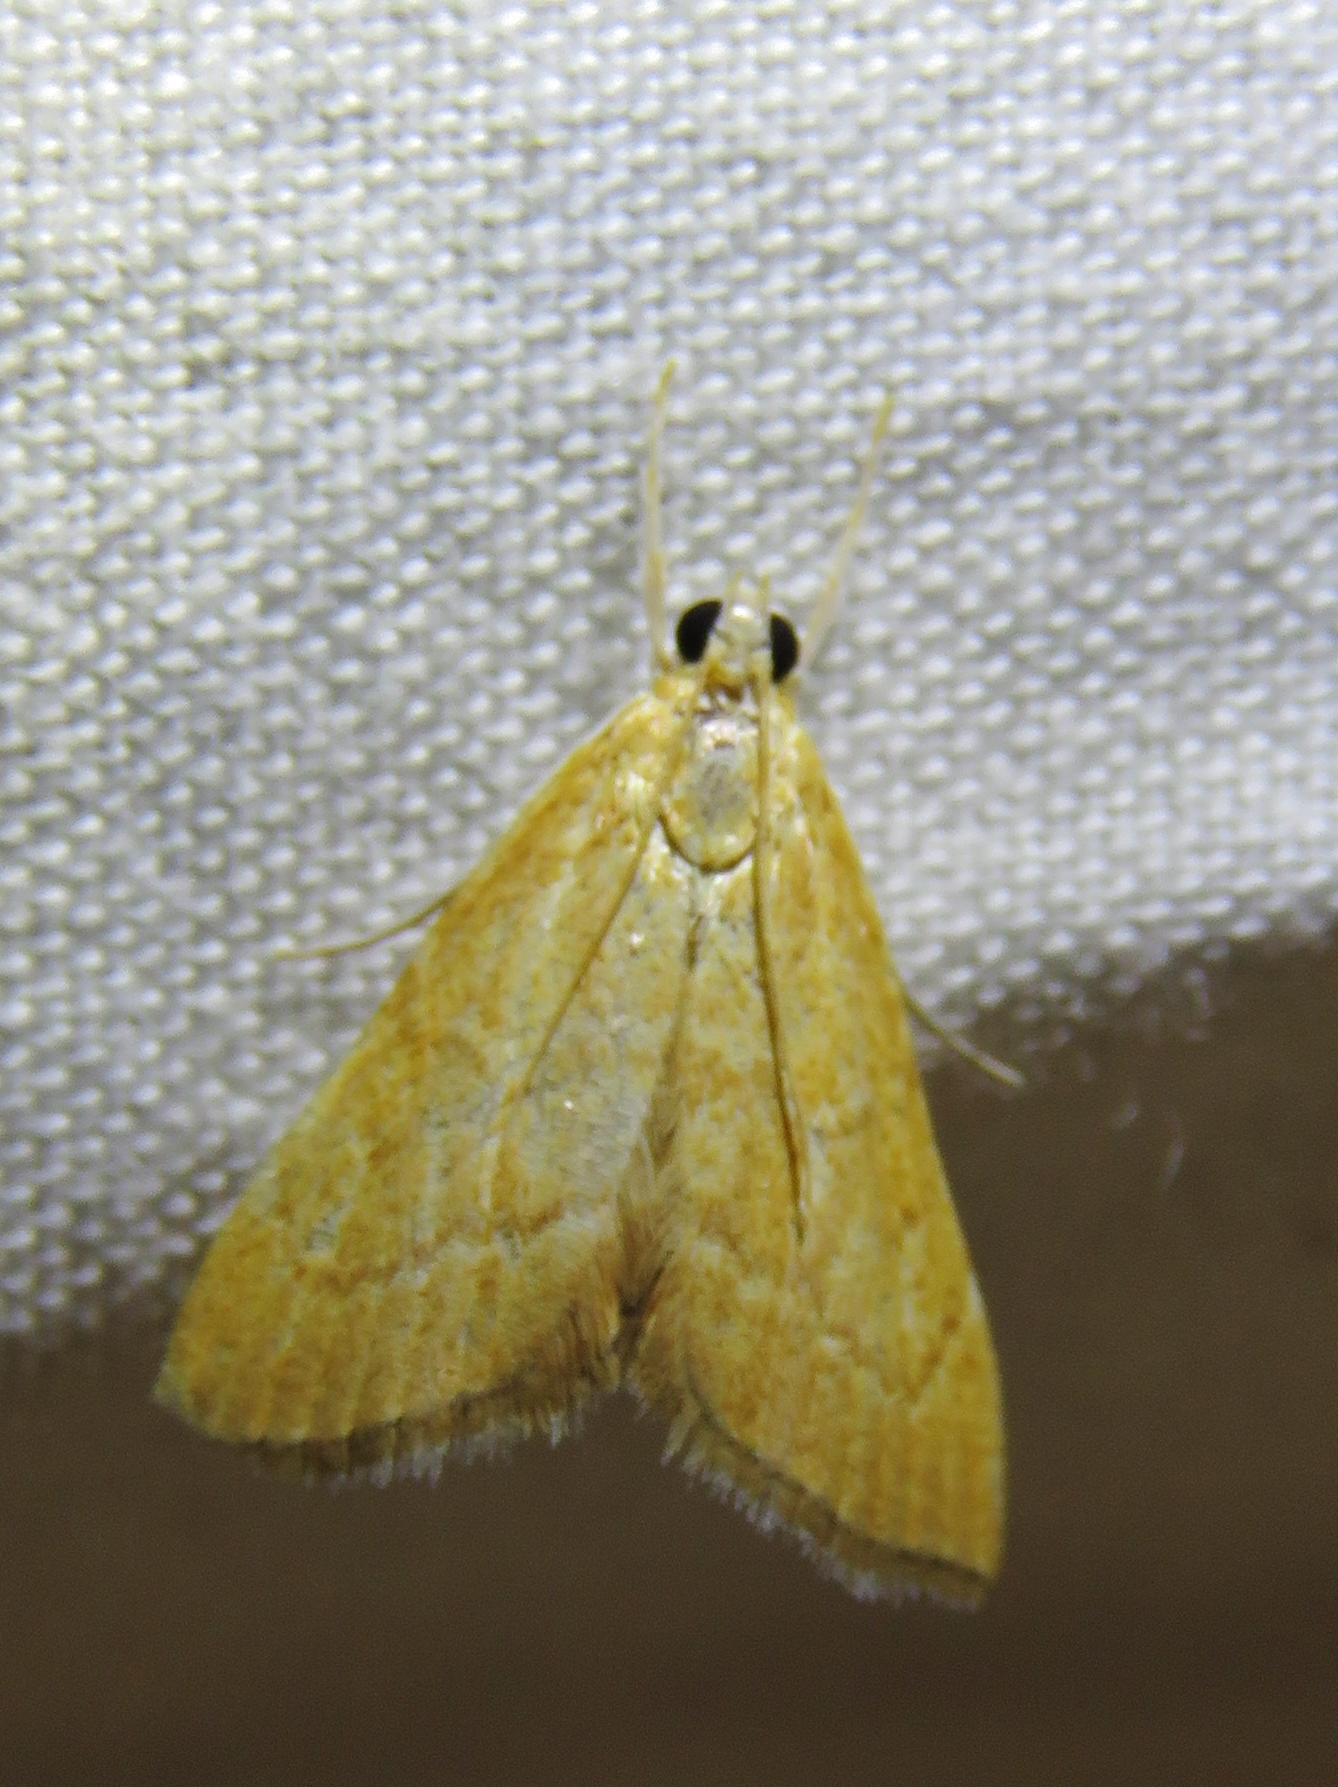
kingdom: Animalia
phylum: Arthropoda
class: Insecta
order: Lepidoptera
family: Crambidae
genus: Glaphyria
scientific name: Glaphyria invisalis
